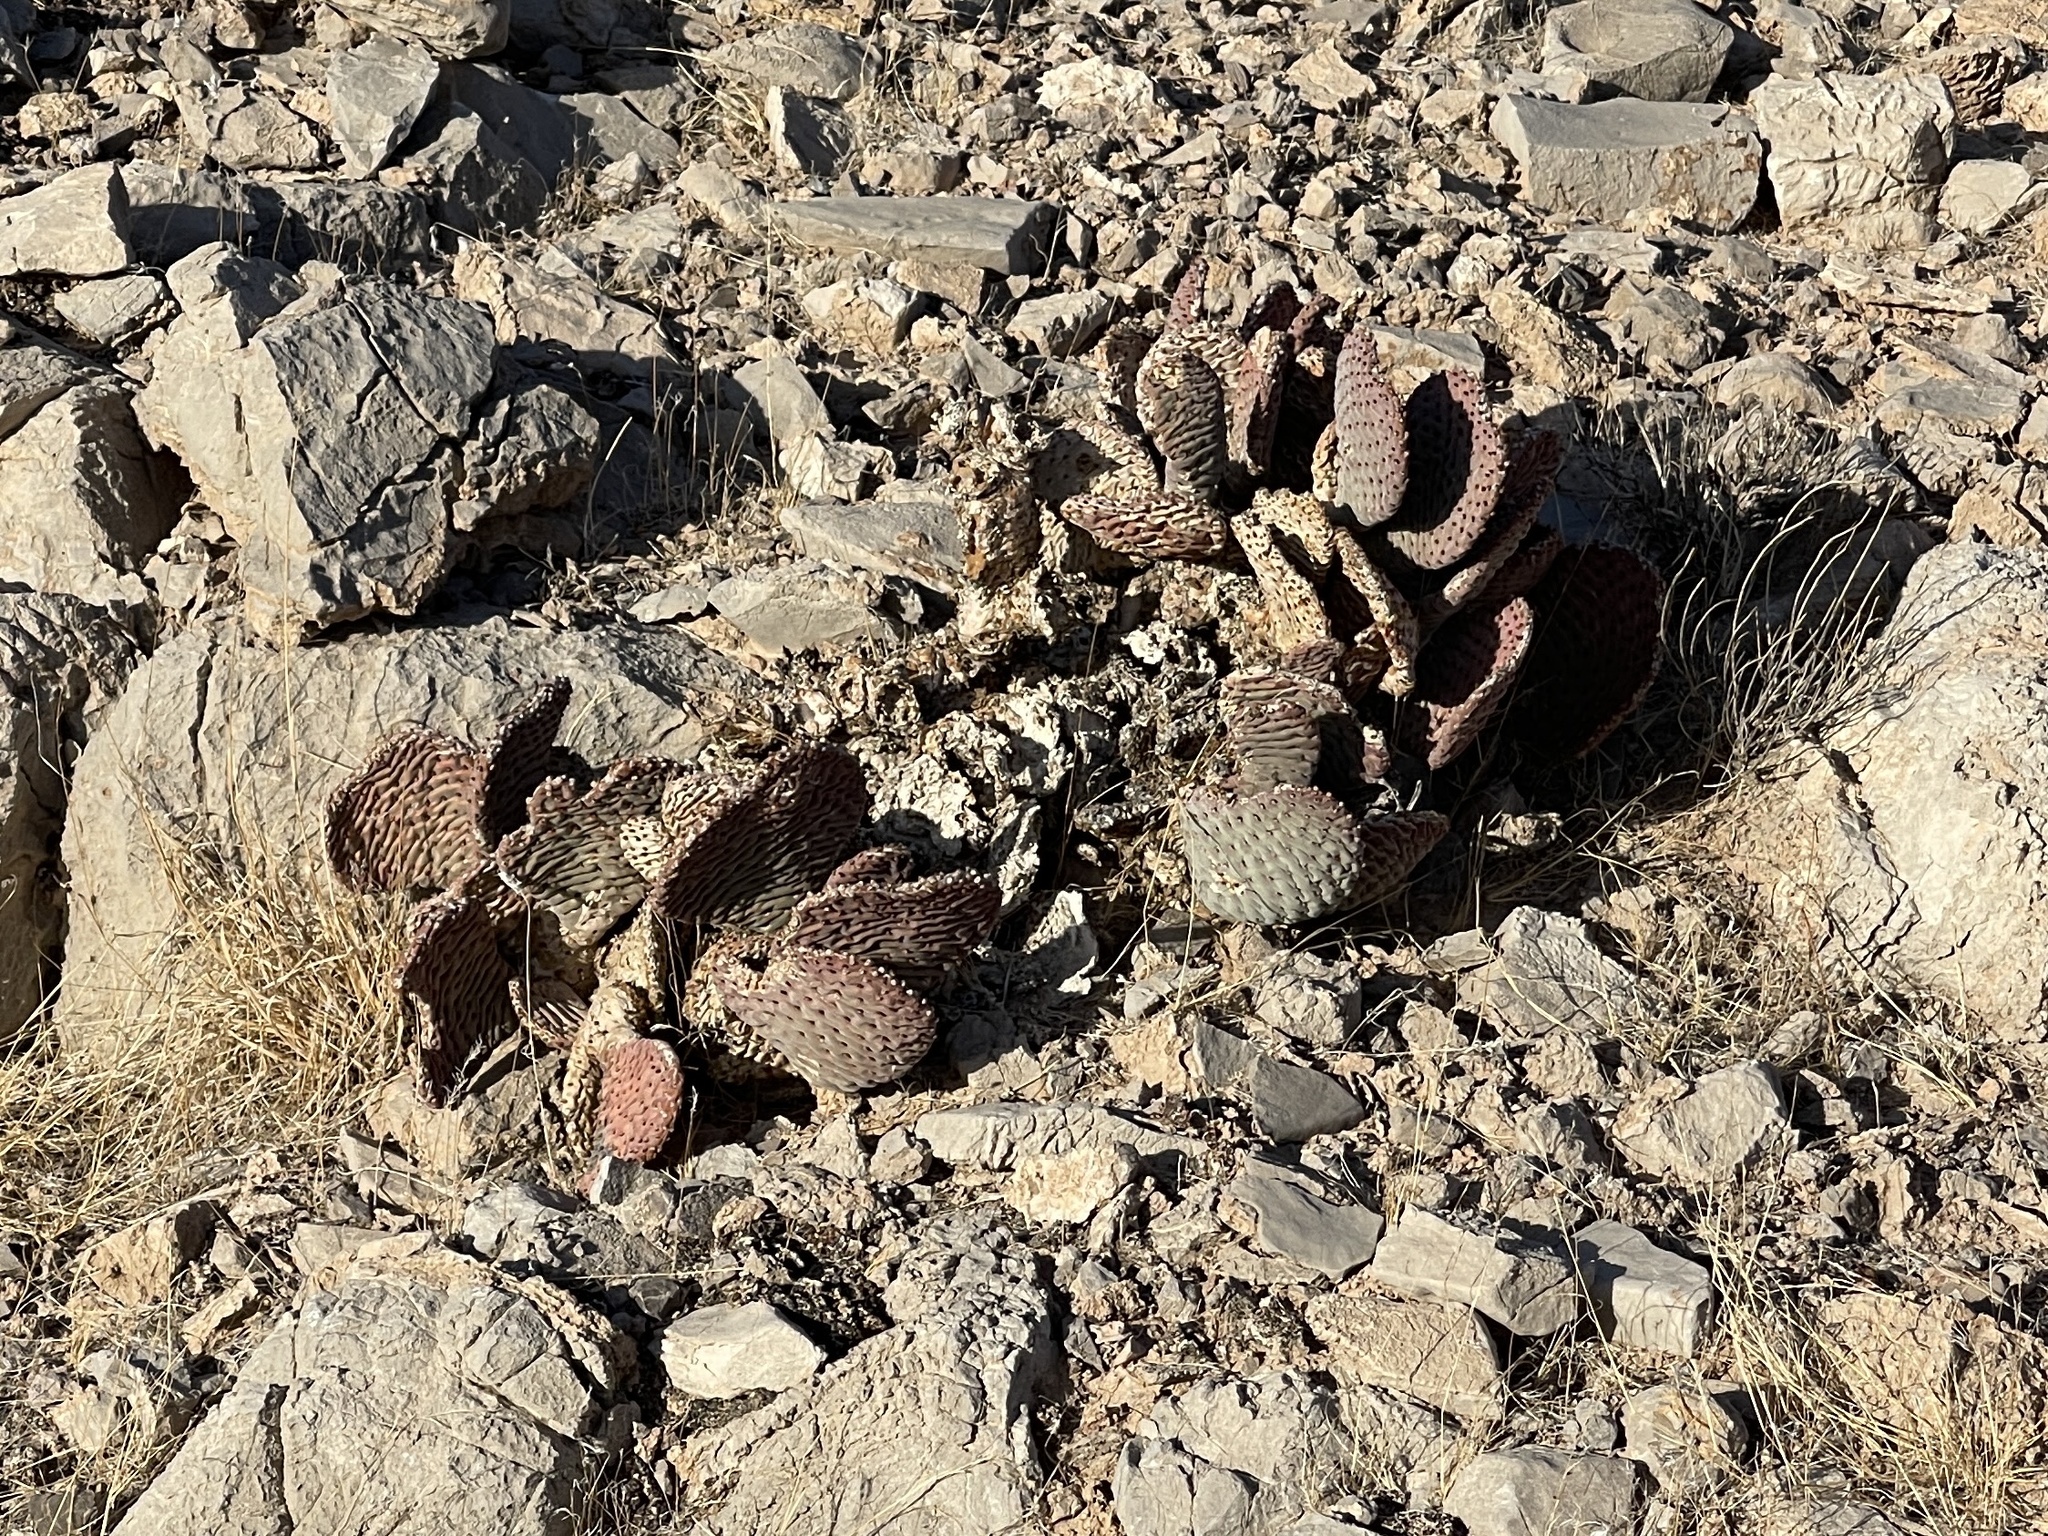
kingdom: Plantae
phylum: Tracheophyta
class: Magnoliopsida
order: Caryophyllales
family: Cactaceae
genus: Opuntia
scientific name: Opuntia basilaris
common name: Beavertail prickly-pear
